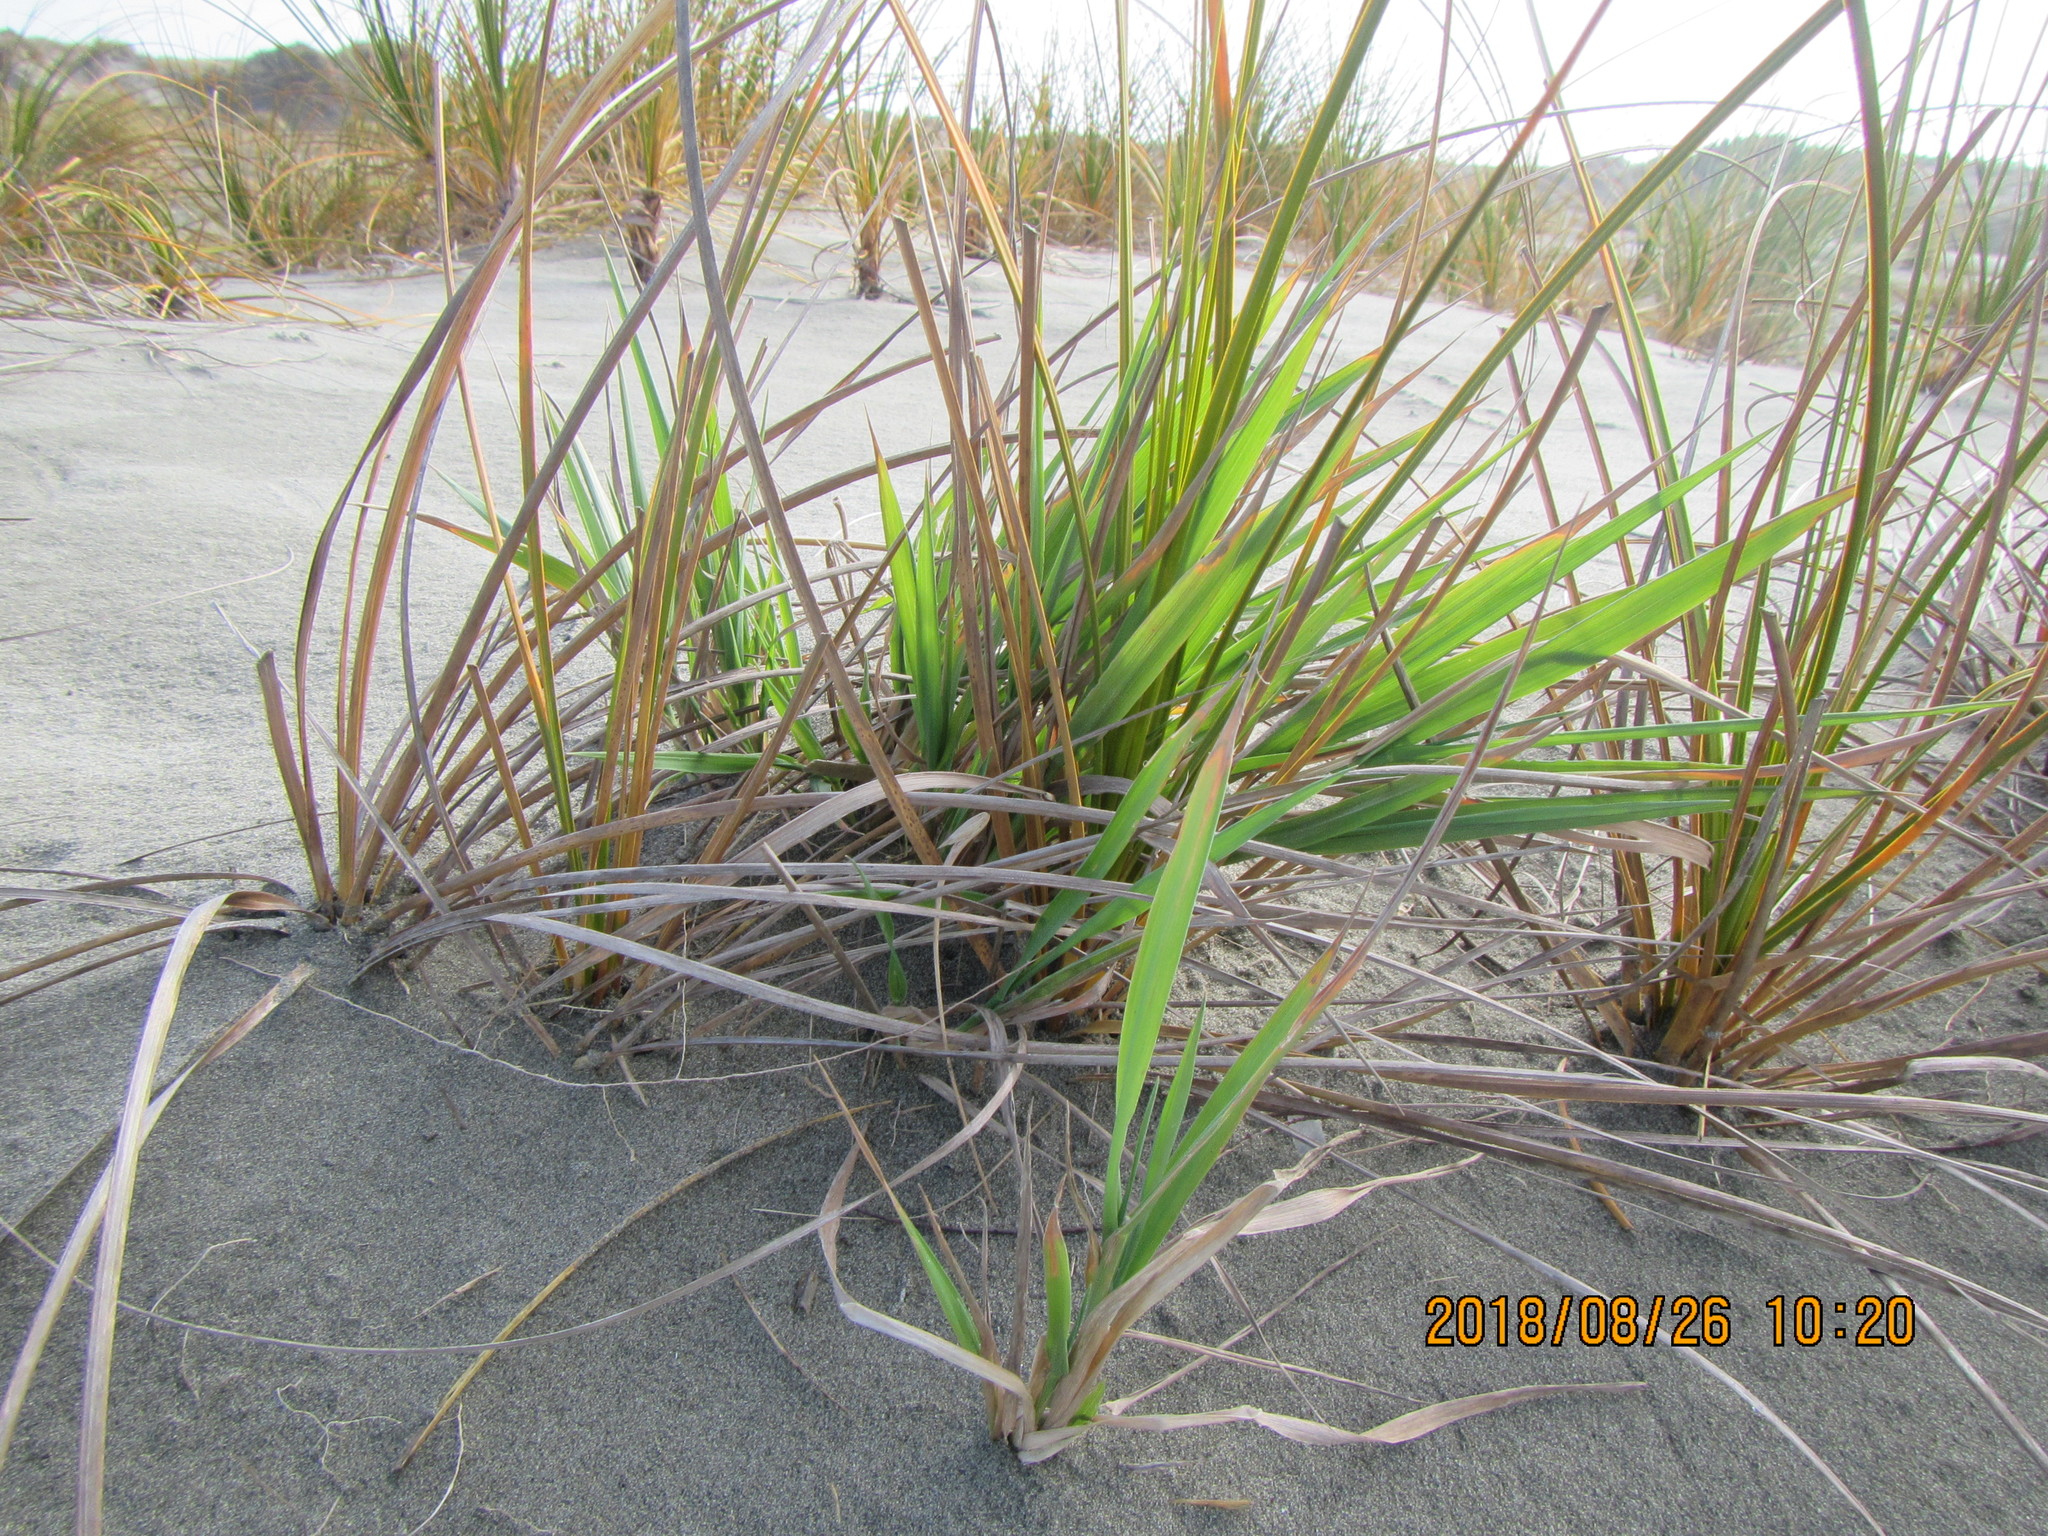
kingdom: Plantae
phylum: Tracheophyta
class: Liliopsida
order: Poales
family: Poaceae
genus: Lachnagrostis
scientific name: Lachnagrostis billardierei
